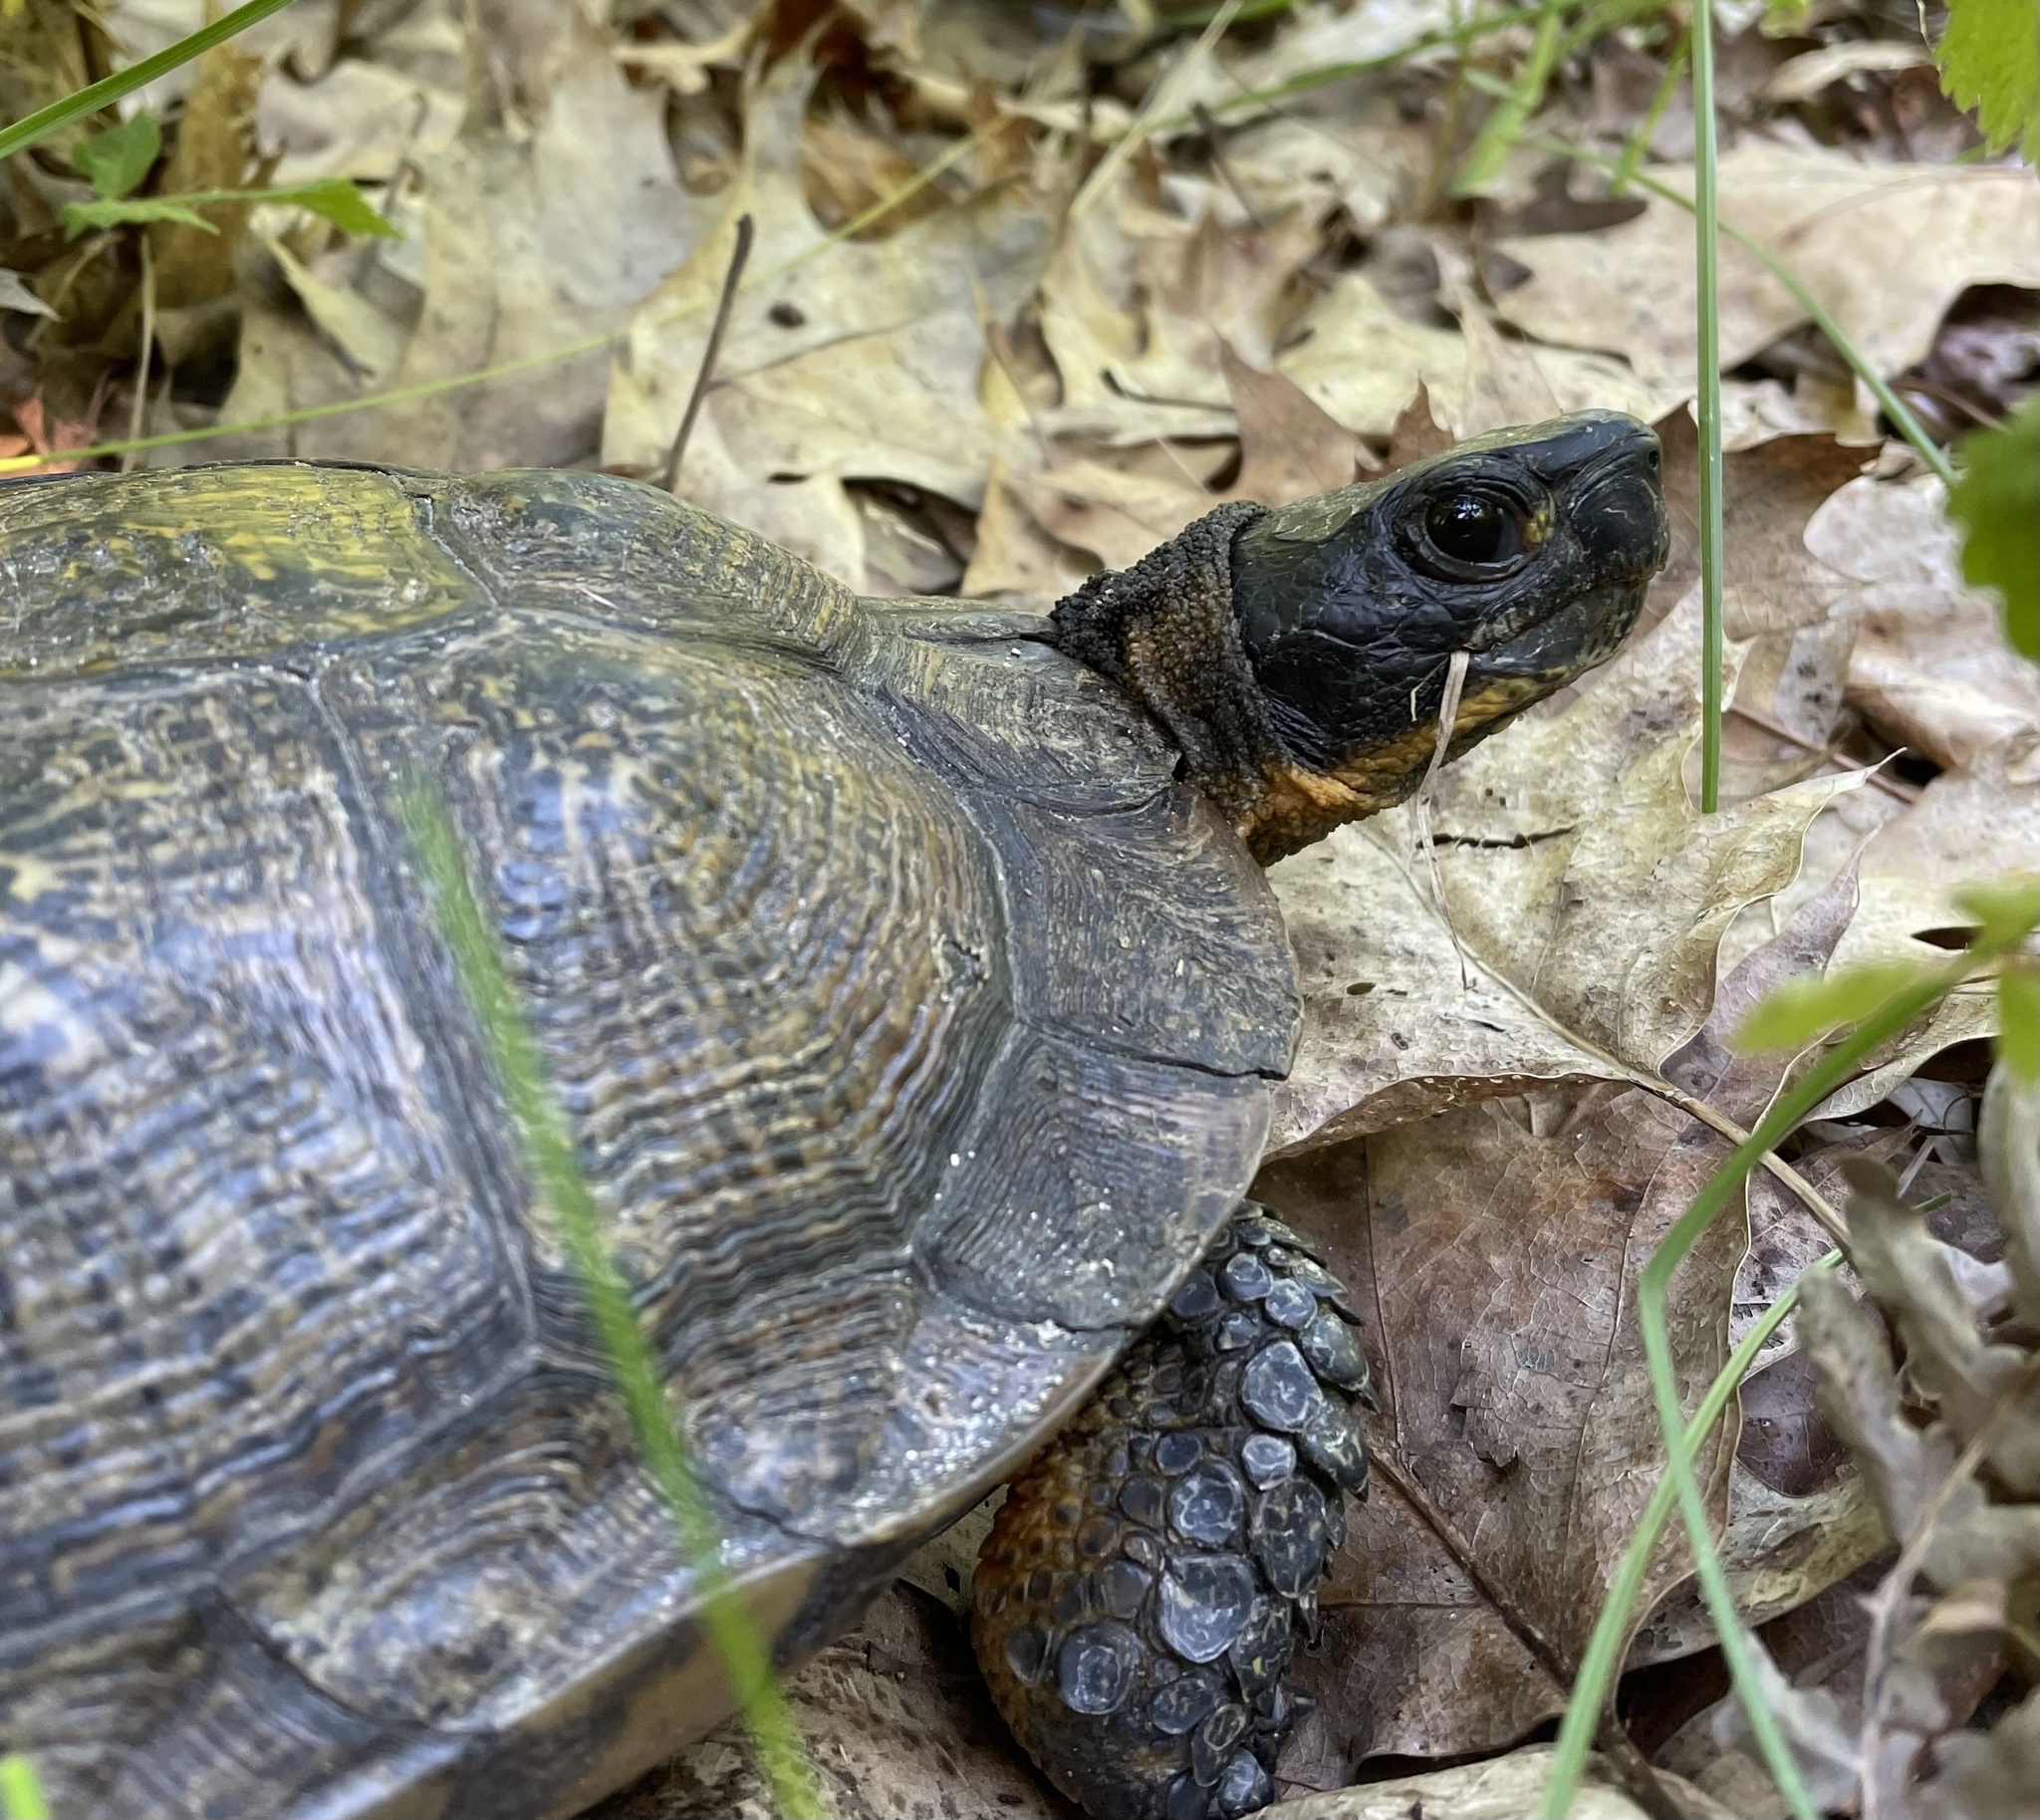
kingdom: Animalia
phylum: Chordata
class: Testudines
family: Emydidae
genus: Glyptemys
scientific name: Glyptemys insculpta
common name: Wood turtle
